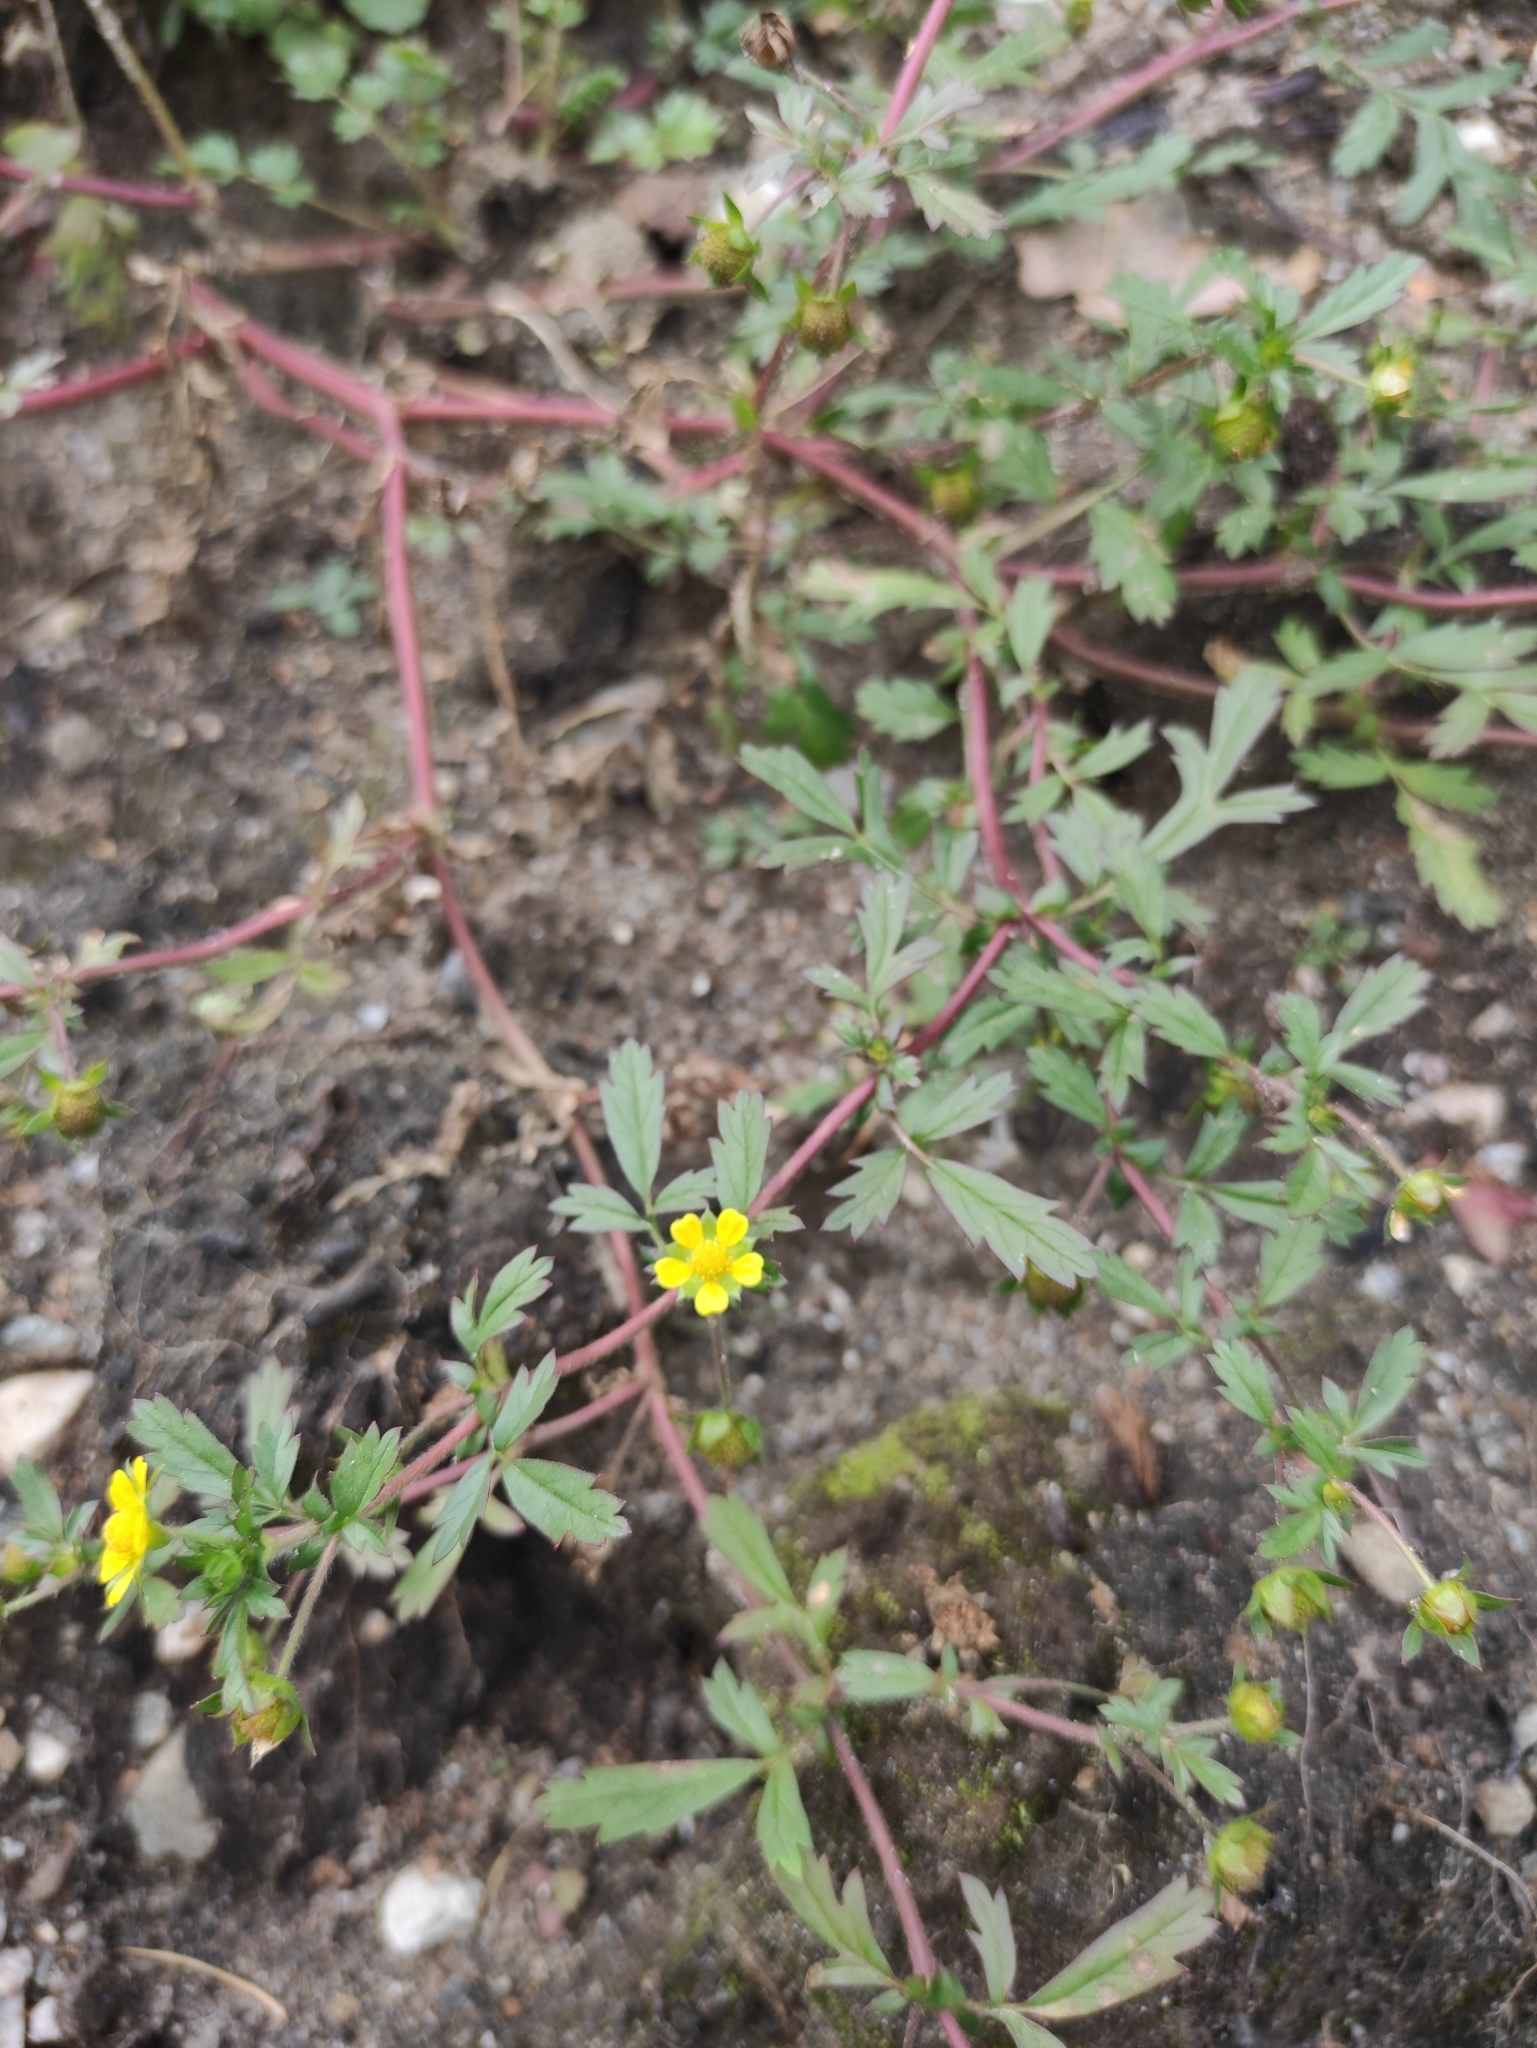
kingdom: Plantae
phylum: Tracheophyta
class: Magnoliopsida
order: Rosales
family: Rosaceae
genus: Potentilla
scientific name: Potentilla supina
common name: Prostrate cinquefoil
